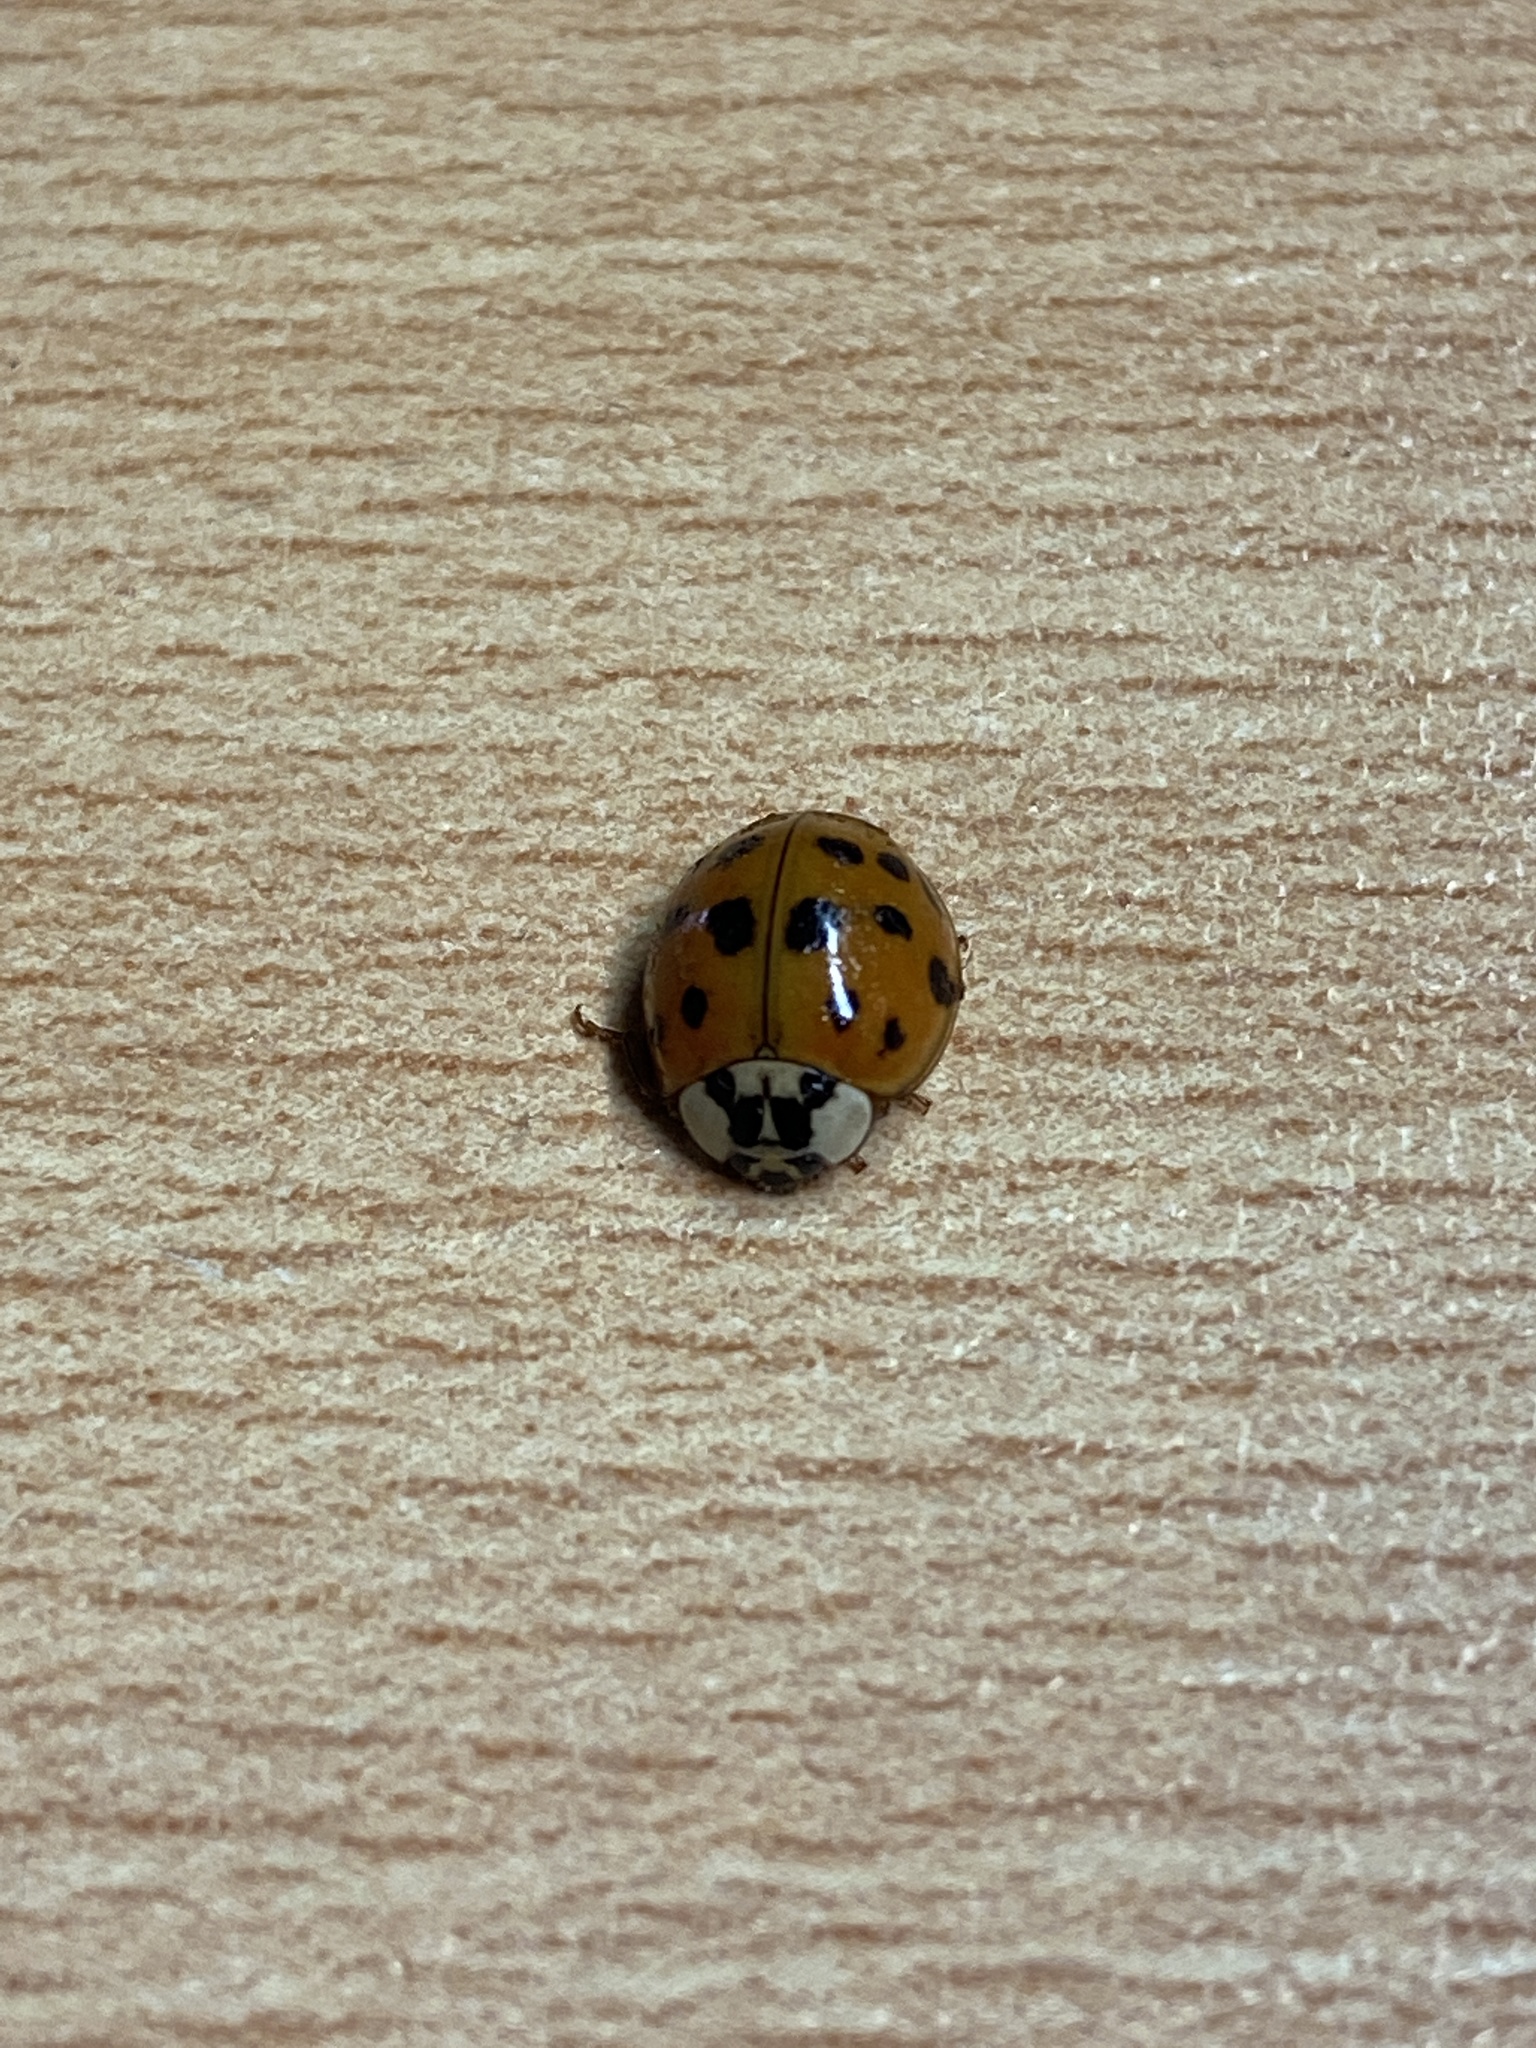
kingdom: Animalia
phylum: Arthropoda
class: Insecta
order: Coleoptera
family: Coccinellidae
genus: Harmonia
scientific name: Harmonia axyridis
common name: Harlequin ladybird
